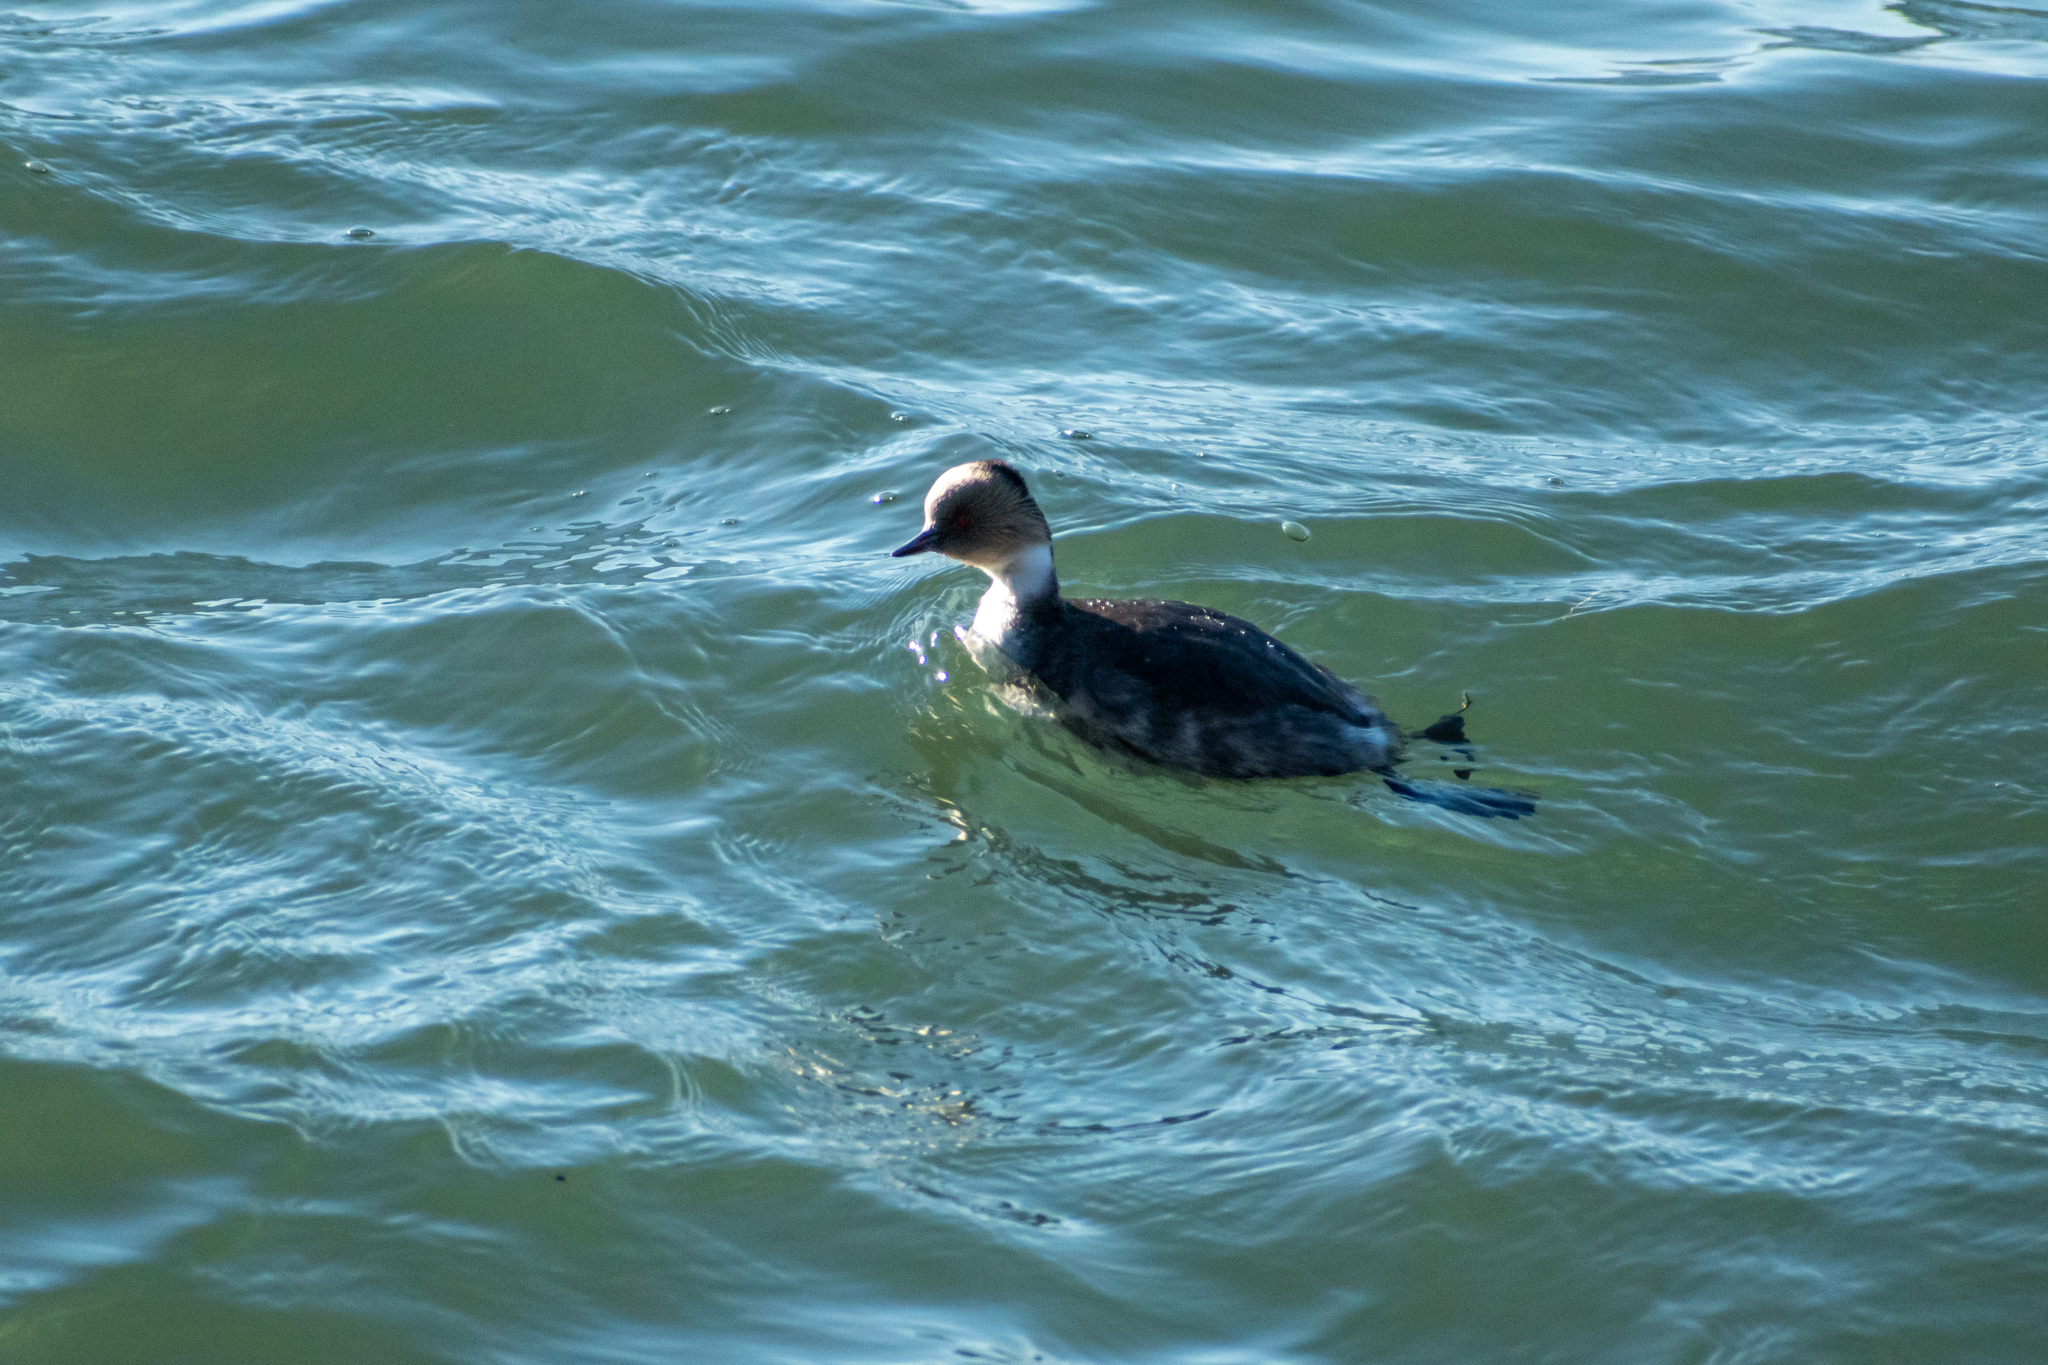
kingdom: Animalia
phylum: Chordata
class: Aves
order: Podicipediformes
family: Podicipedidae
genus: Podiceps
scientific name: Podiceps occipitalis
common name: Silvery grebe
